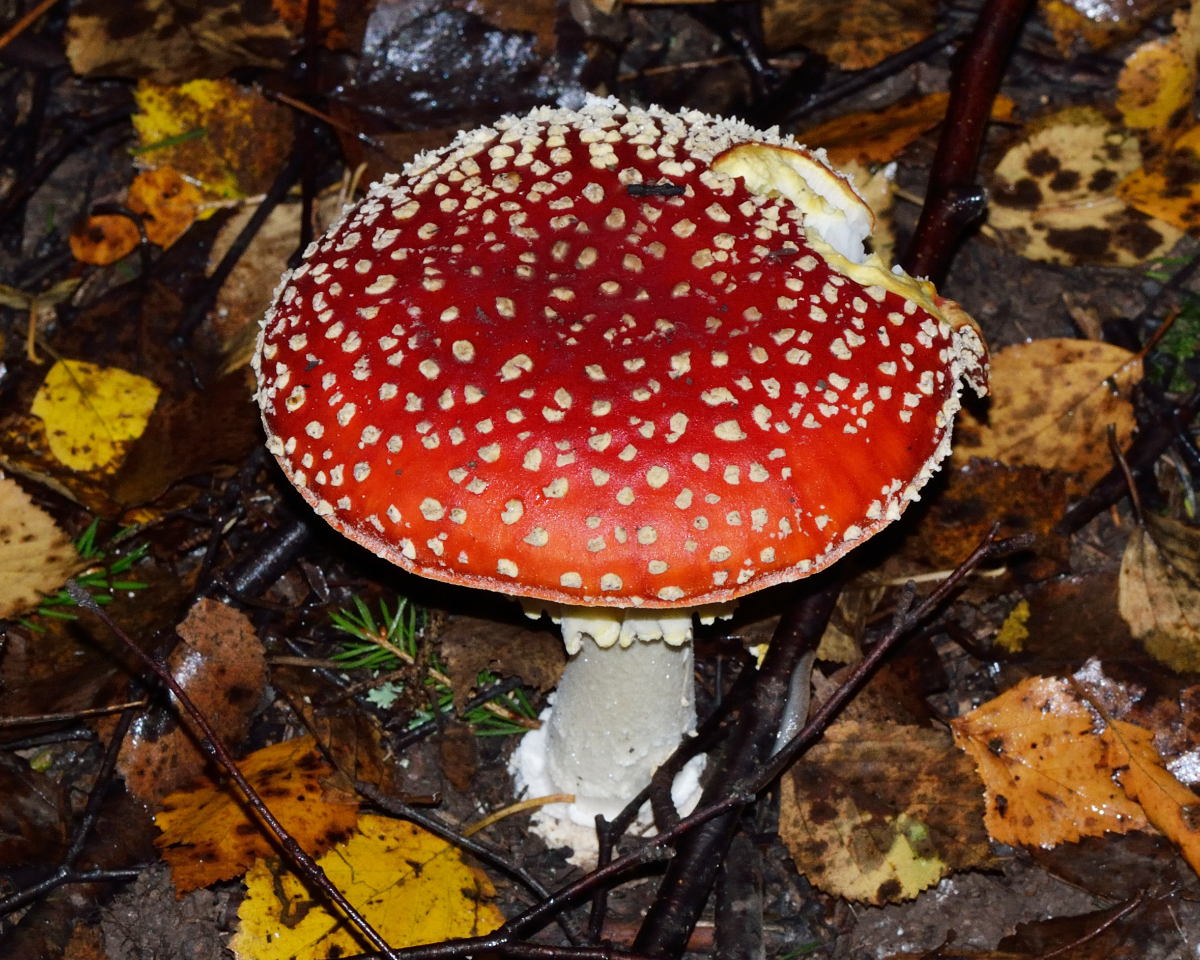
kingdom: Fungi
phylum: Basidiomycota
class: Agaricomycetes
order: Agaricales
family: Amanitaceae
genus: Amanita
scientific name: Amanita muscaria
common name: Fly agaric
